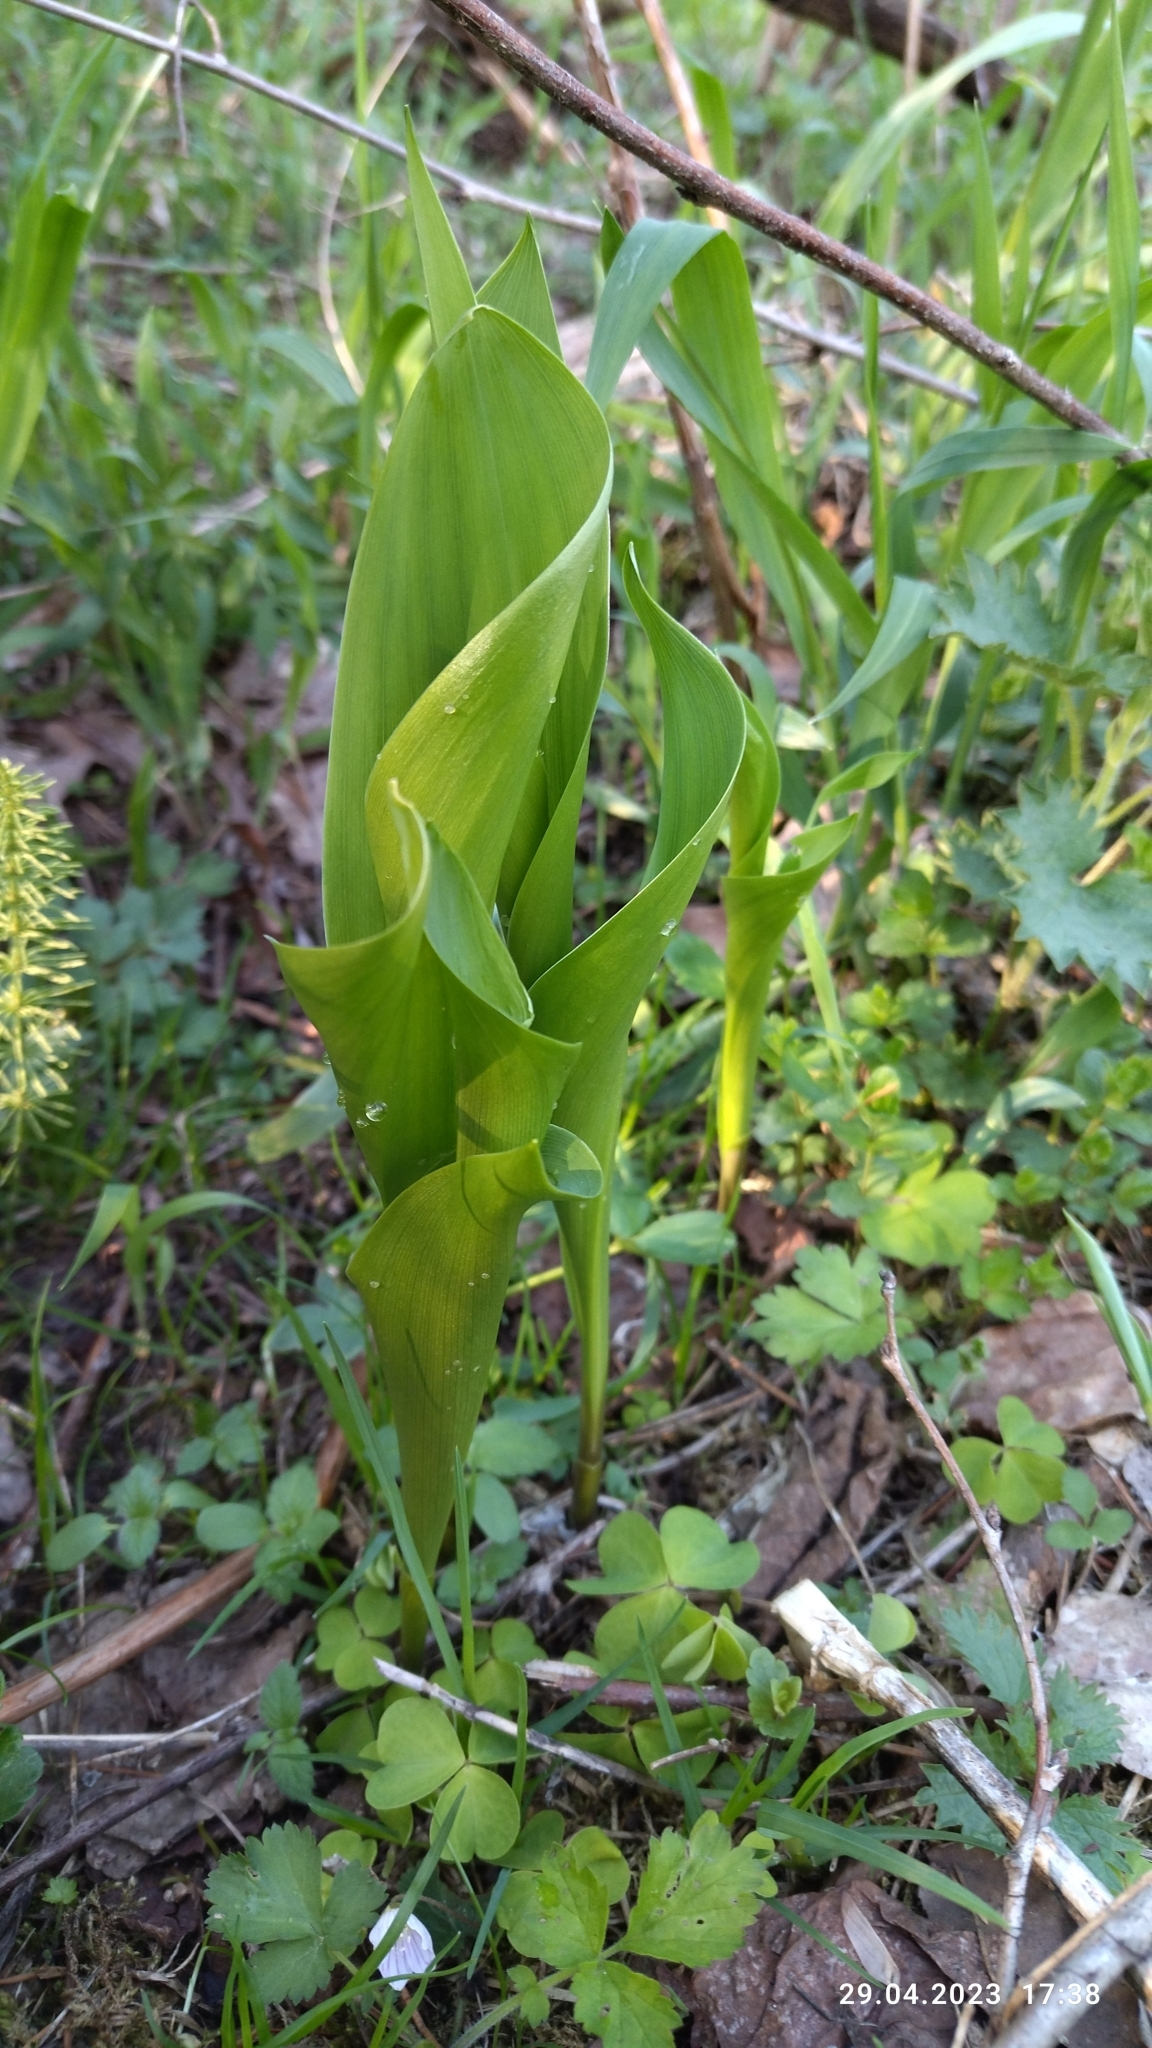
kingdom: Plantae
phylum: Tracheophyta
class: Liliopsida
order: Asparagales
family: Asparagaceae
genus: Convallaria
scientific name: Convallaria majalis
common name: Lily-of-the-valley
